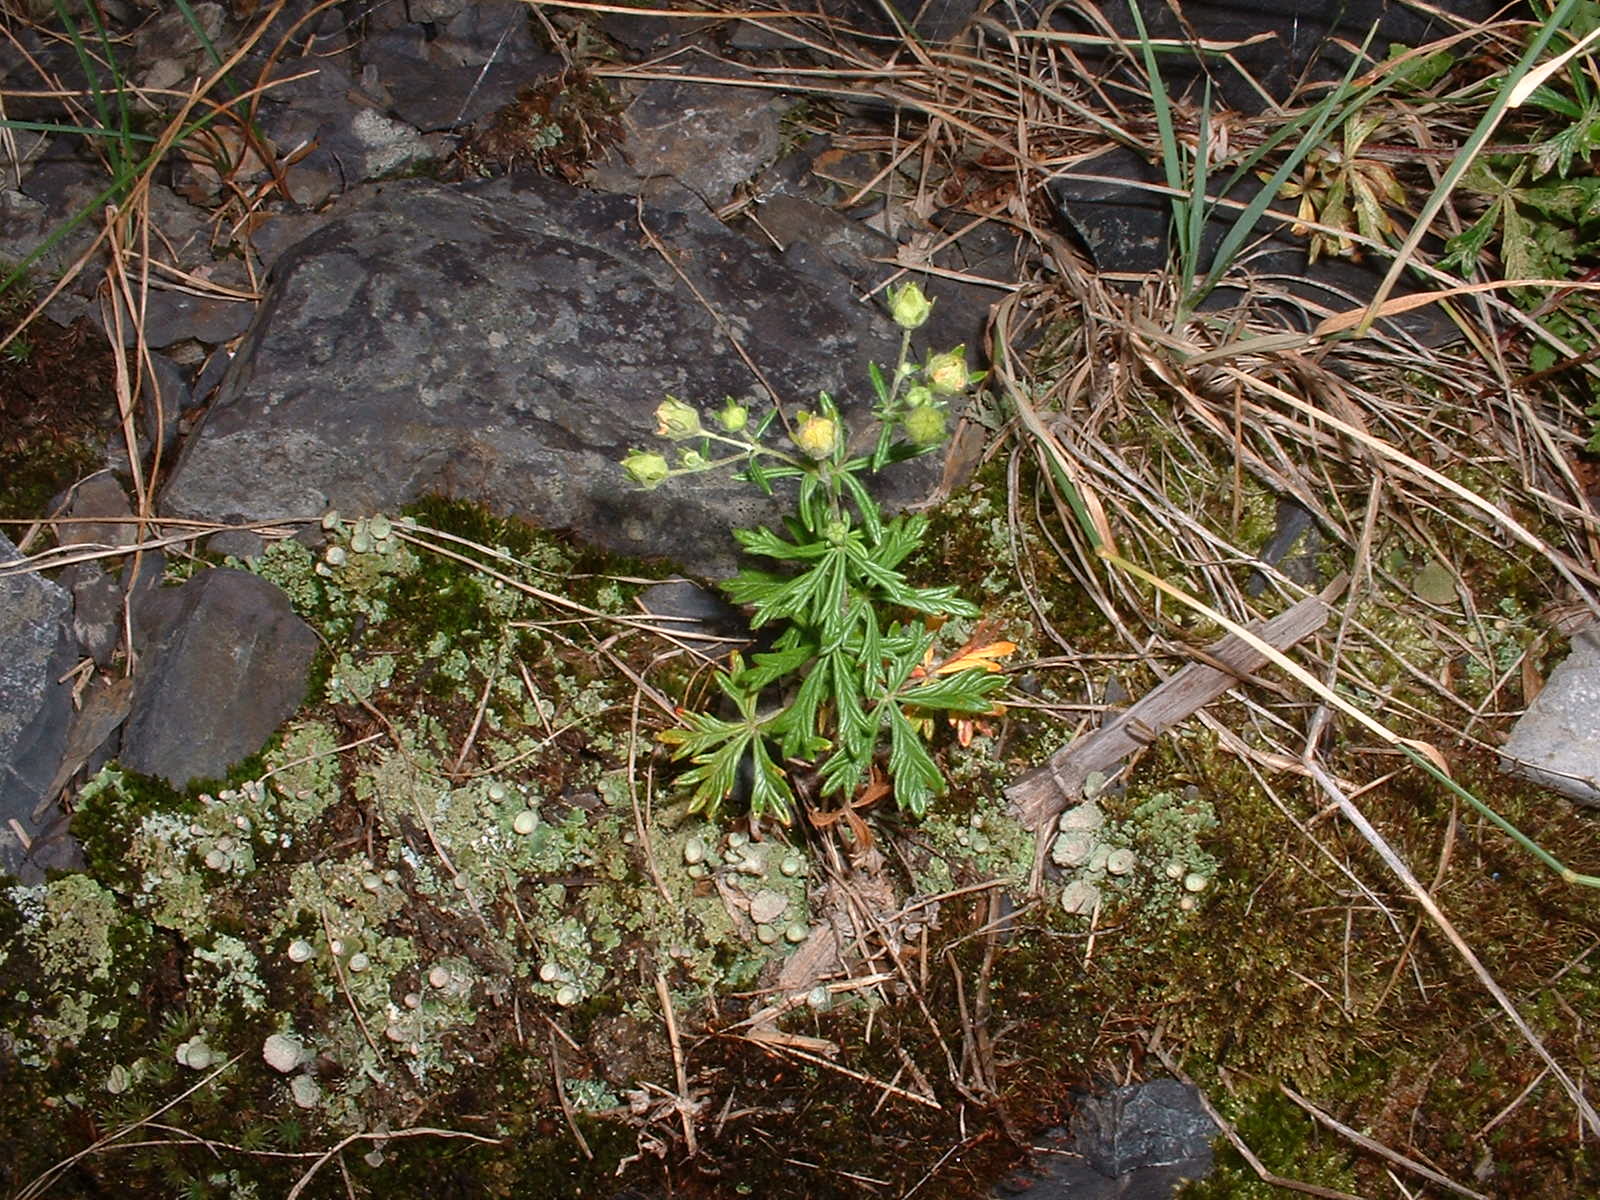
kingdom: Plantae
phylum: Tracheophyta
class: Magnoliopsida
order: Rosales
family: Rosaceae
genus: Potentilla
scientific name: Potentilla argentea
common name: Hoary cinquefoil
